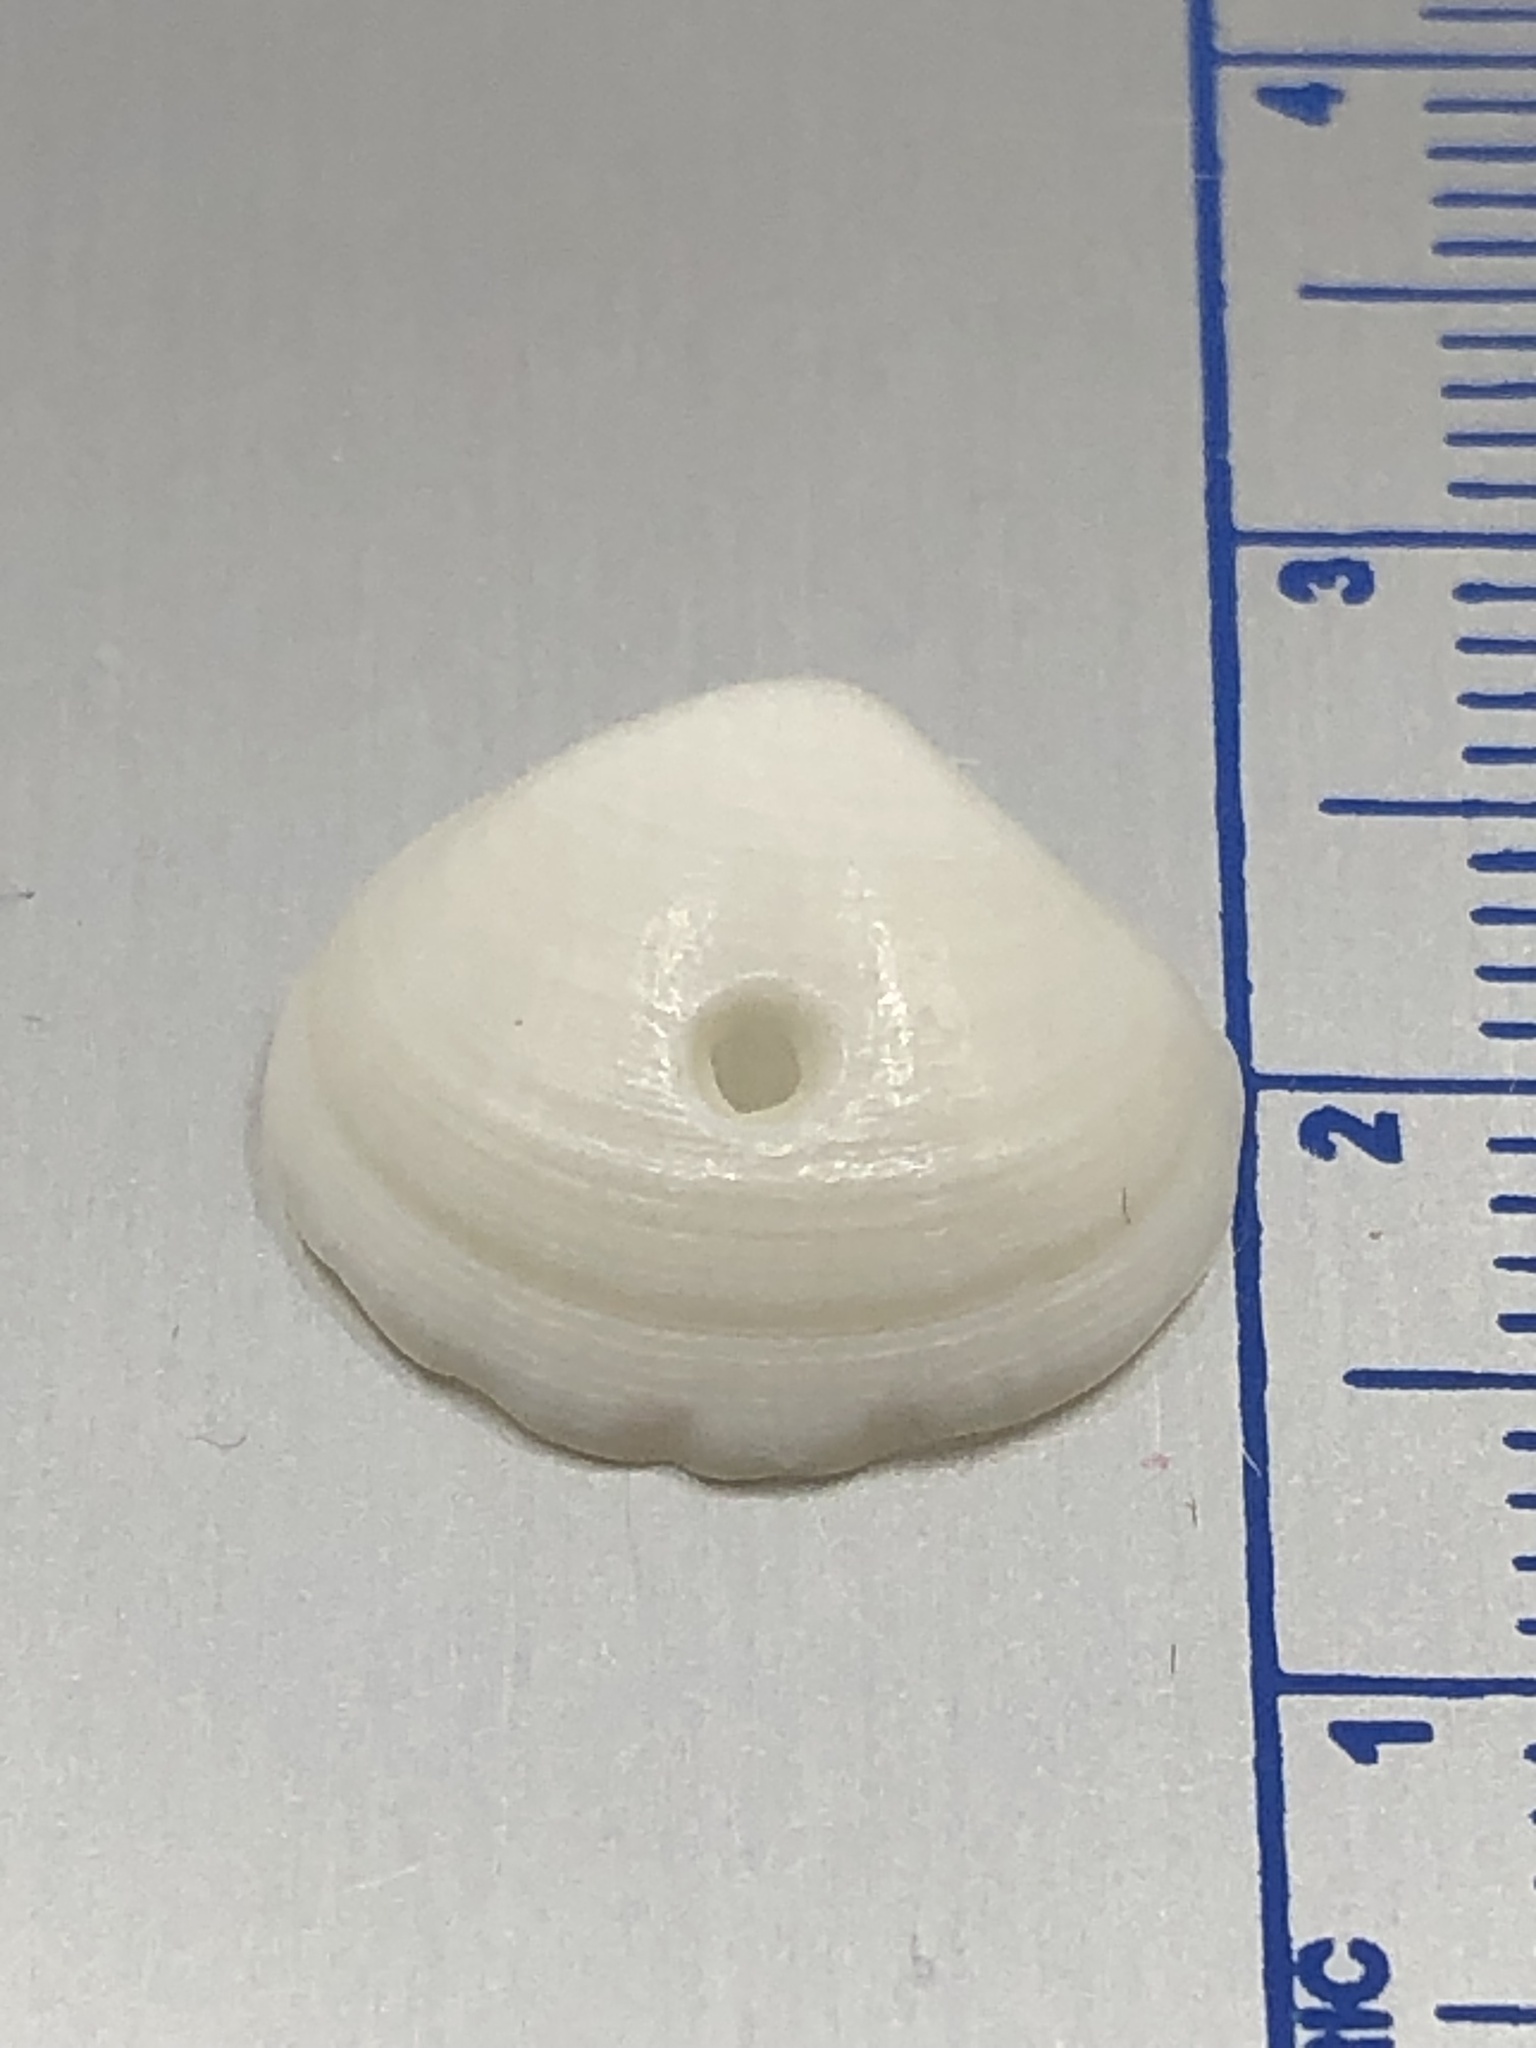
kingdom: Animalia
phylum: Mollusca
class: Bivalvia
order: Lucinida
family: Lucinidae
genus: Callucina
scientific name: Callucina keenae
